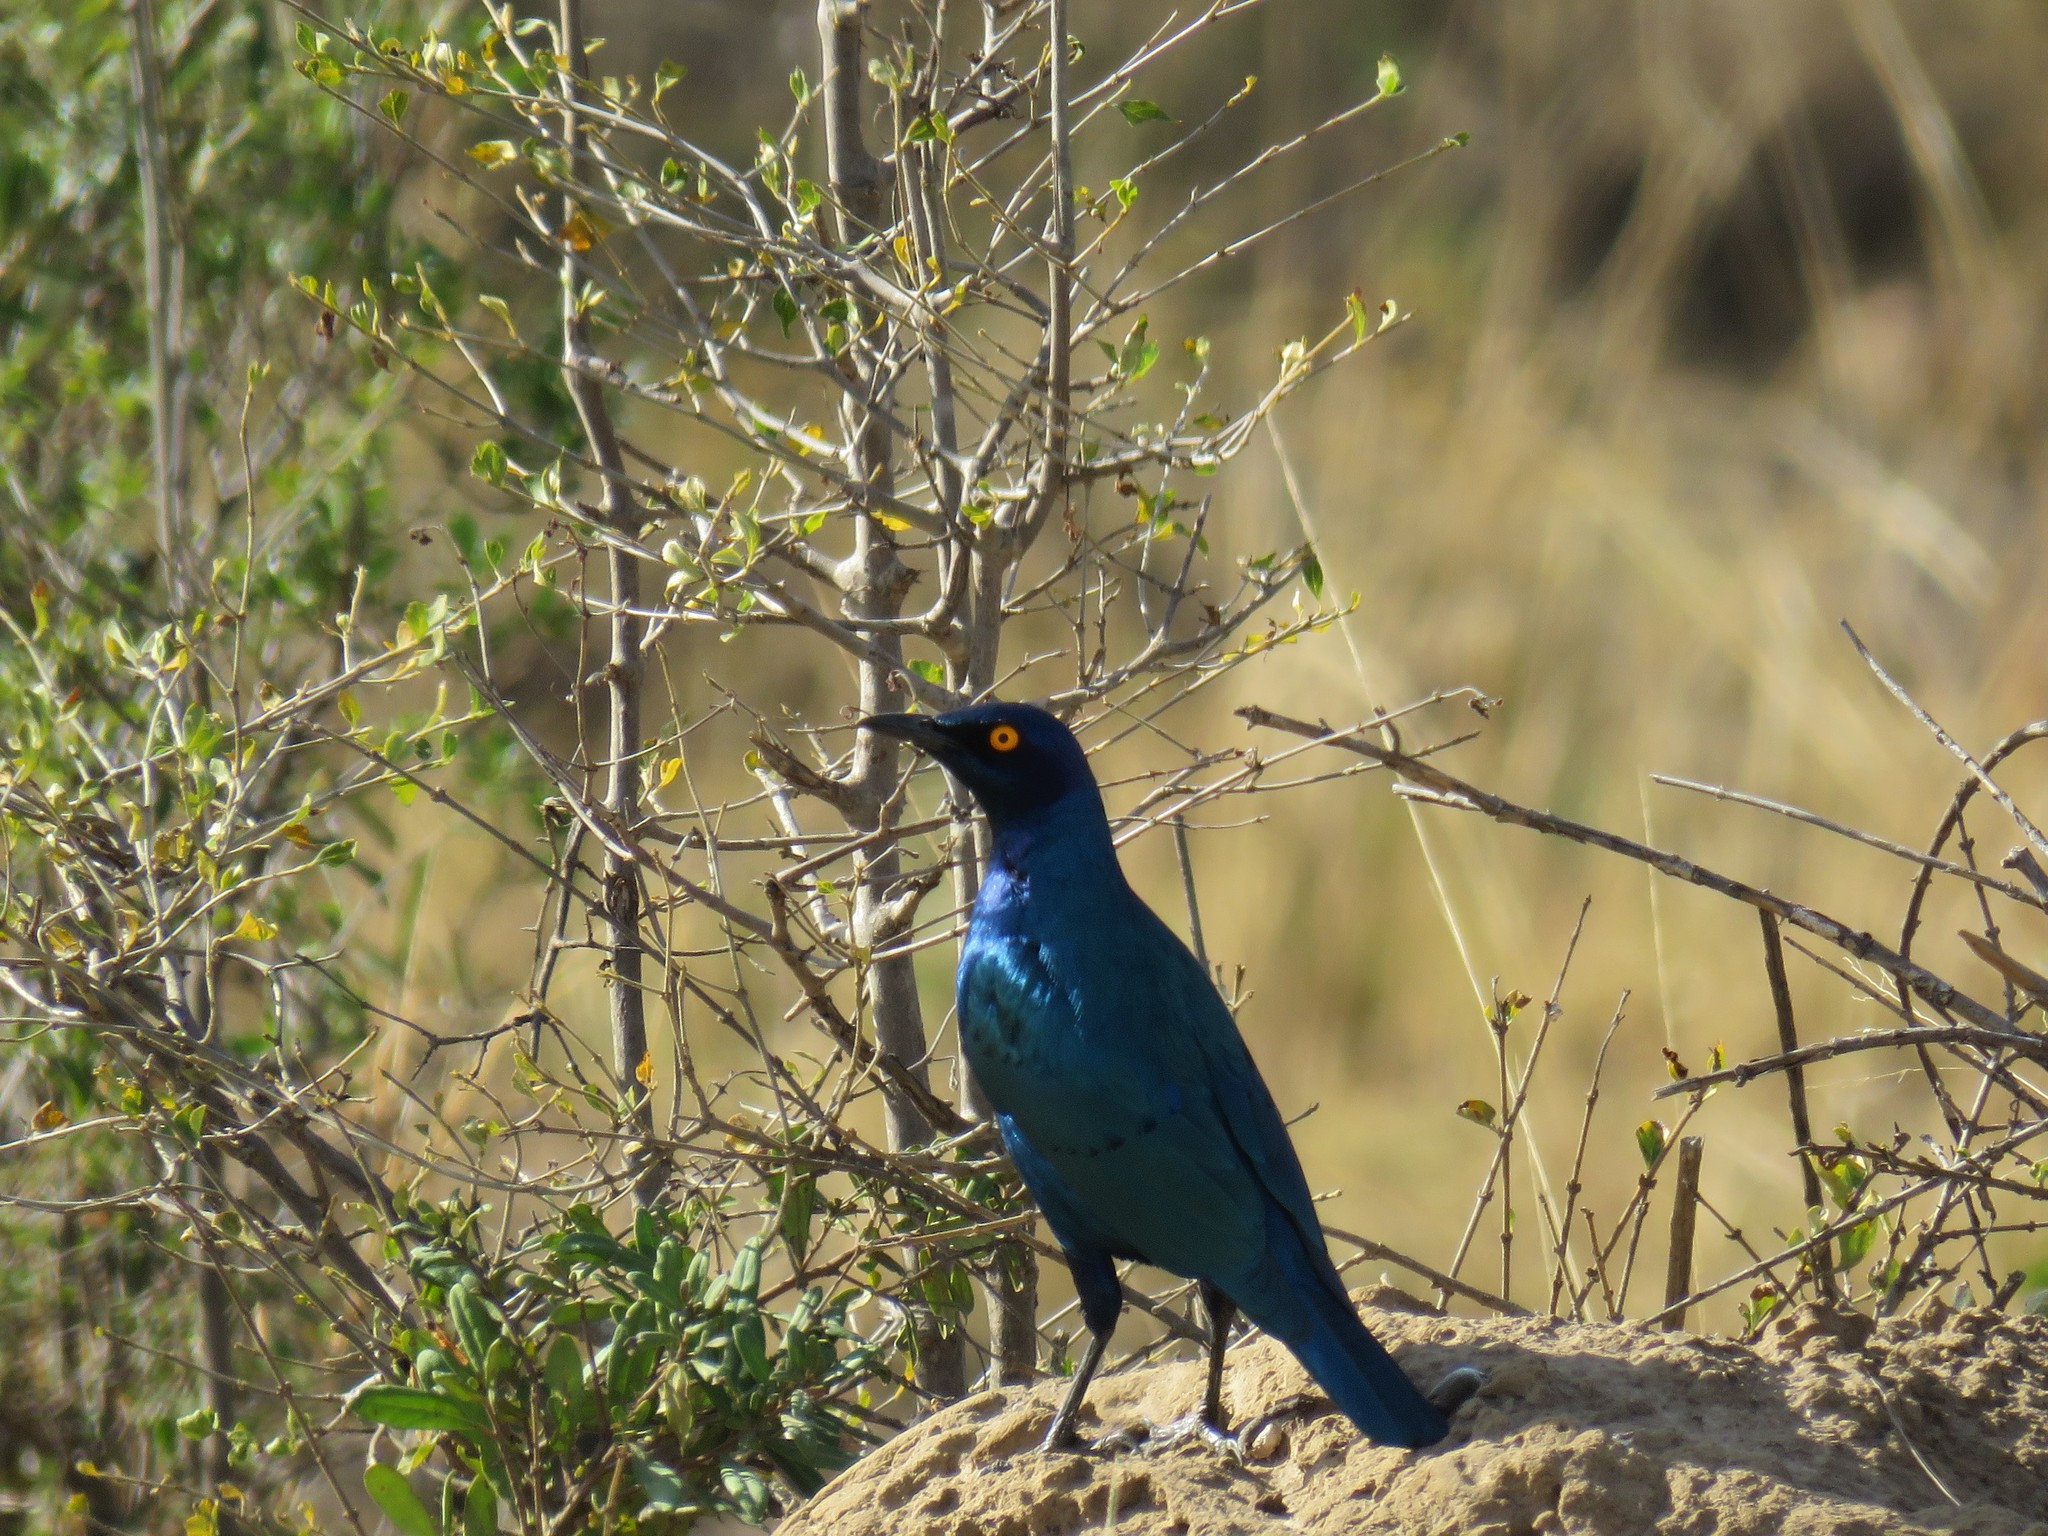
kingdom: Animalia
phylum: Chordata
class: Aves
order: Passeriformes
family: Sturnidae
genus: Lamprotornis
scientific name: Lamprotornis nitens
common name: Cape starling
